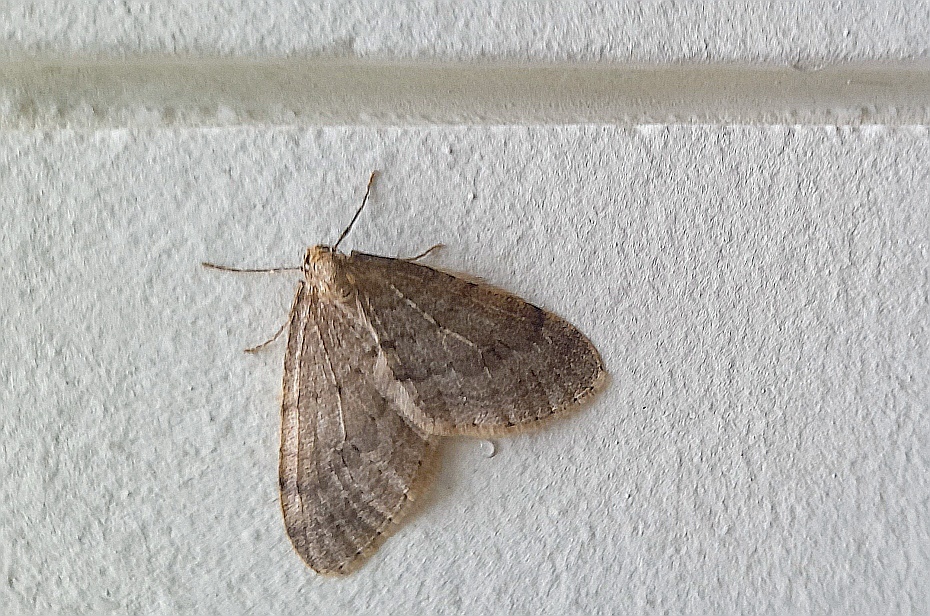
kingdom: Animalia
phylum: Arthropoda
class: Insecta
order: Lepidoptera
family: Geometridae
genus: Operophtera
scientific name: Operophtera fagata
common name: Northern winter moth
